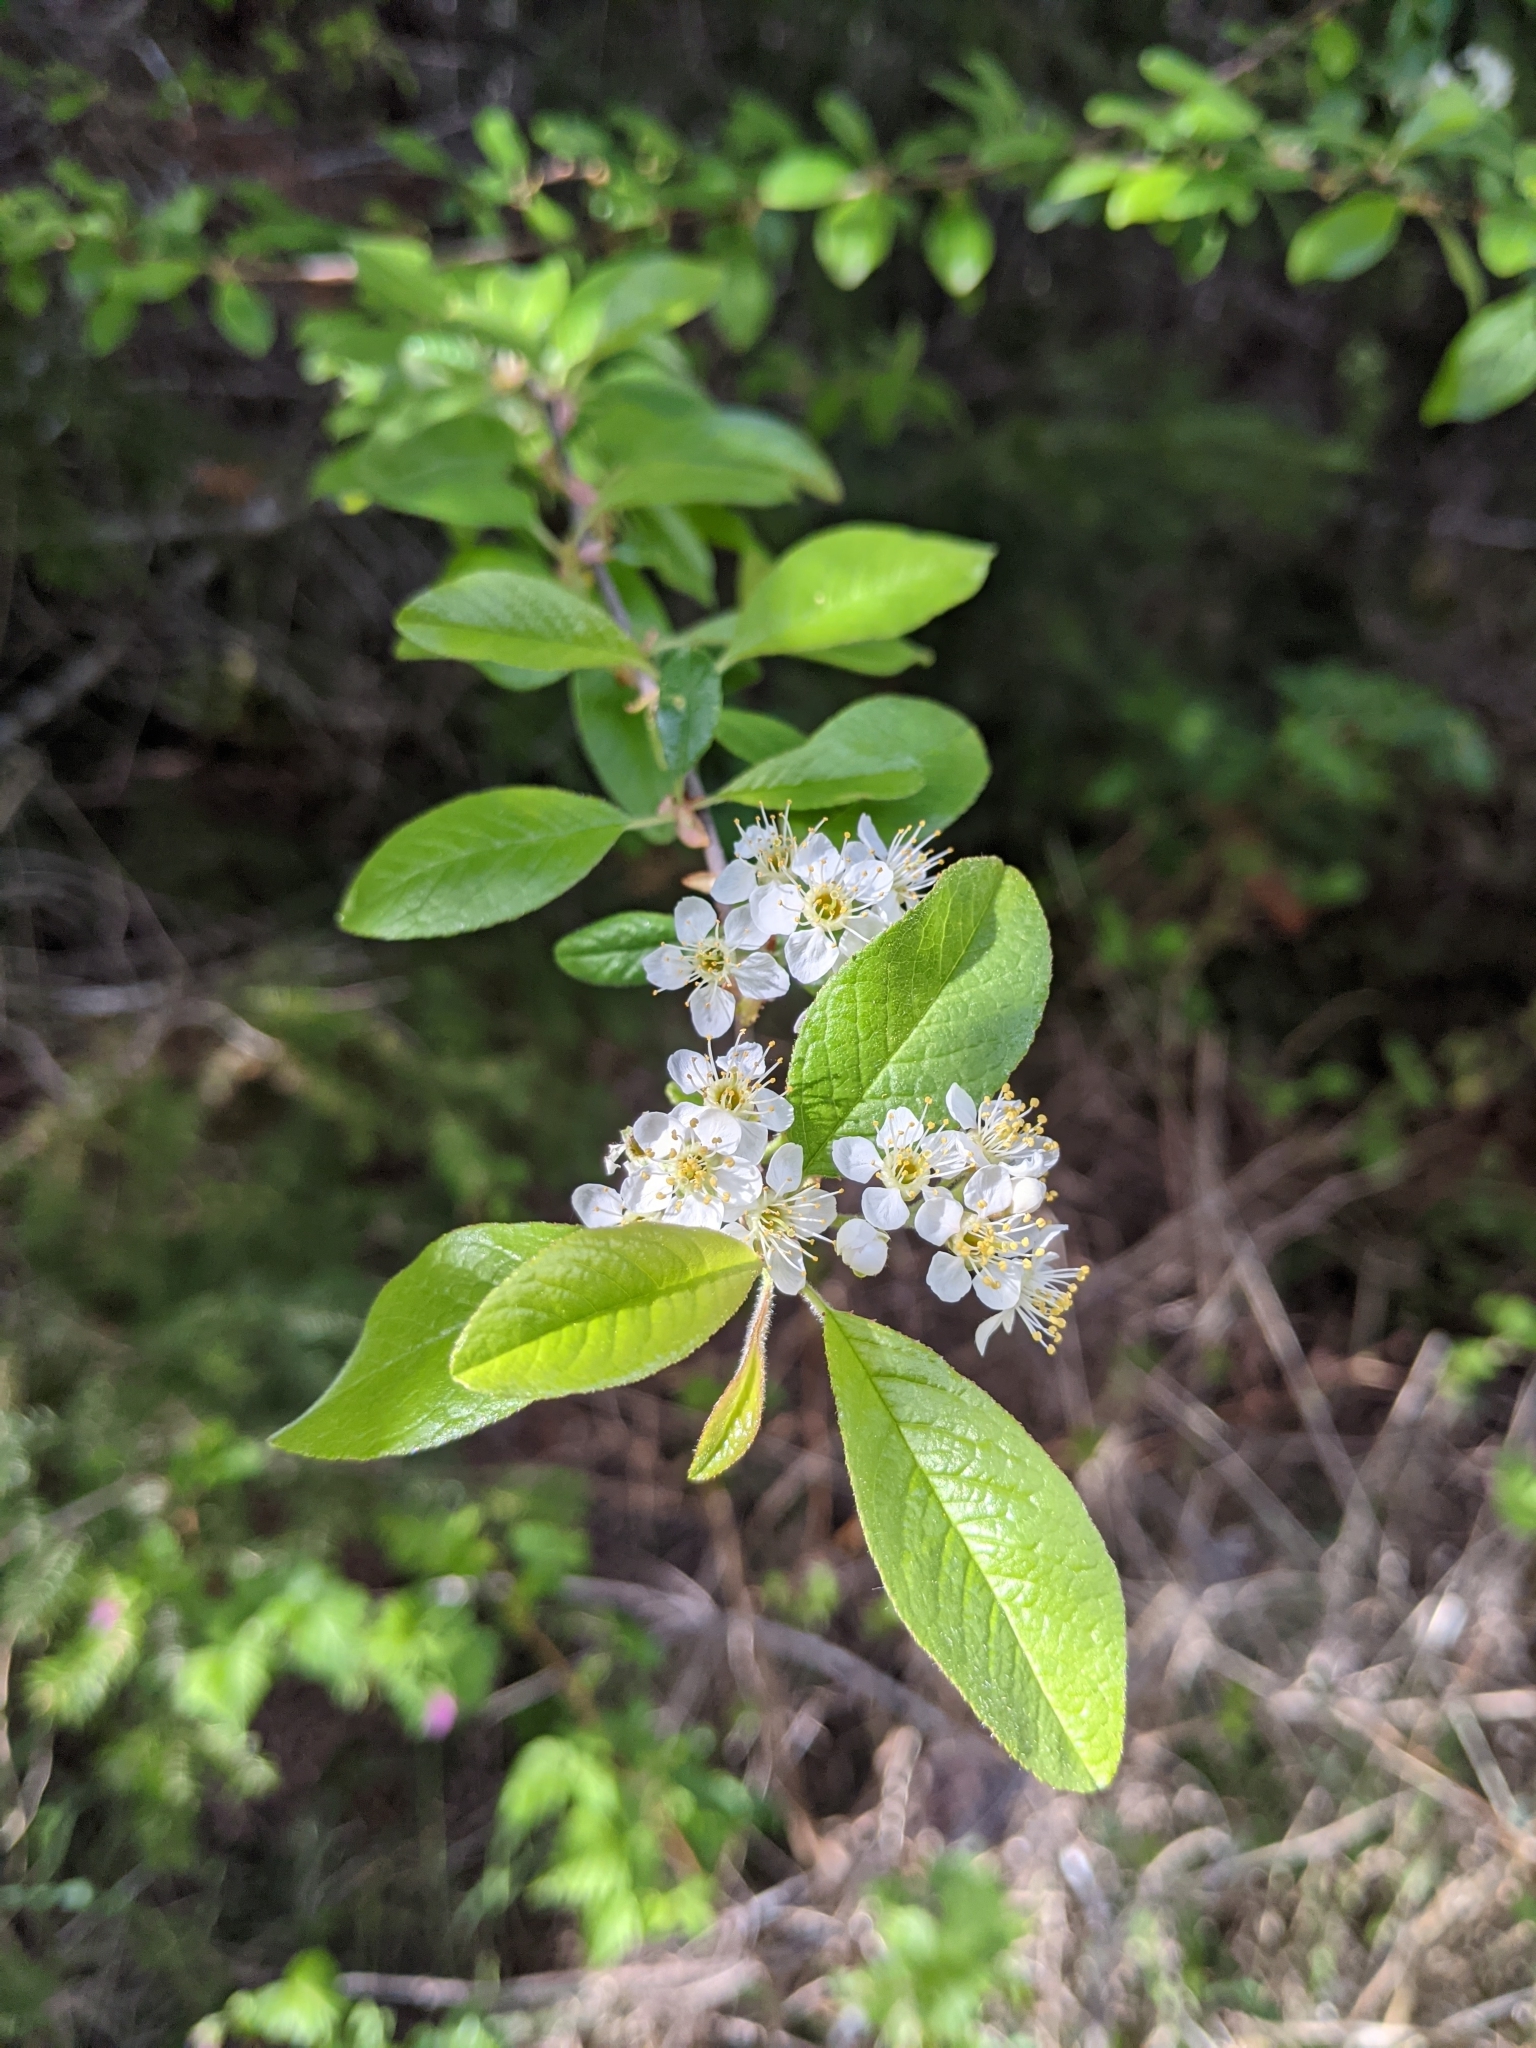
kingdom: Plantae
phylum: Tracheophyta
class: Magnoliopsida
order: Rosales
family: Rosaceae
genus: Prunus
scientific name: Prunus emarginata
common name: Bitter cherry
